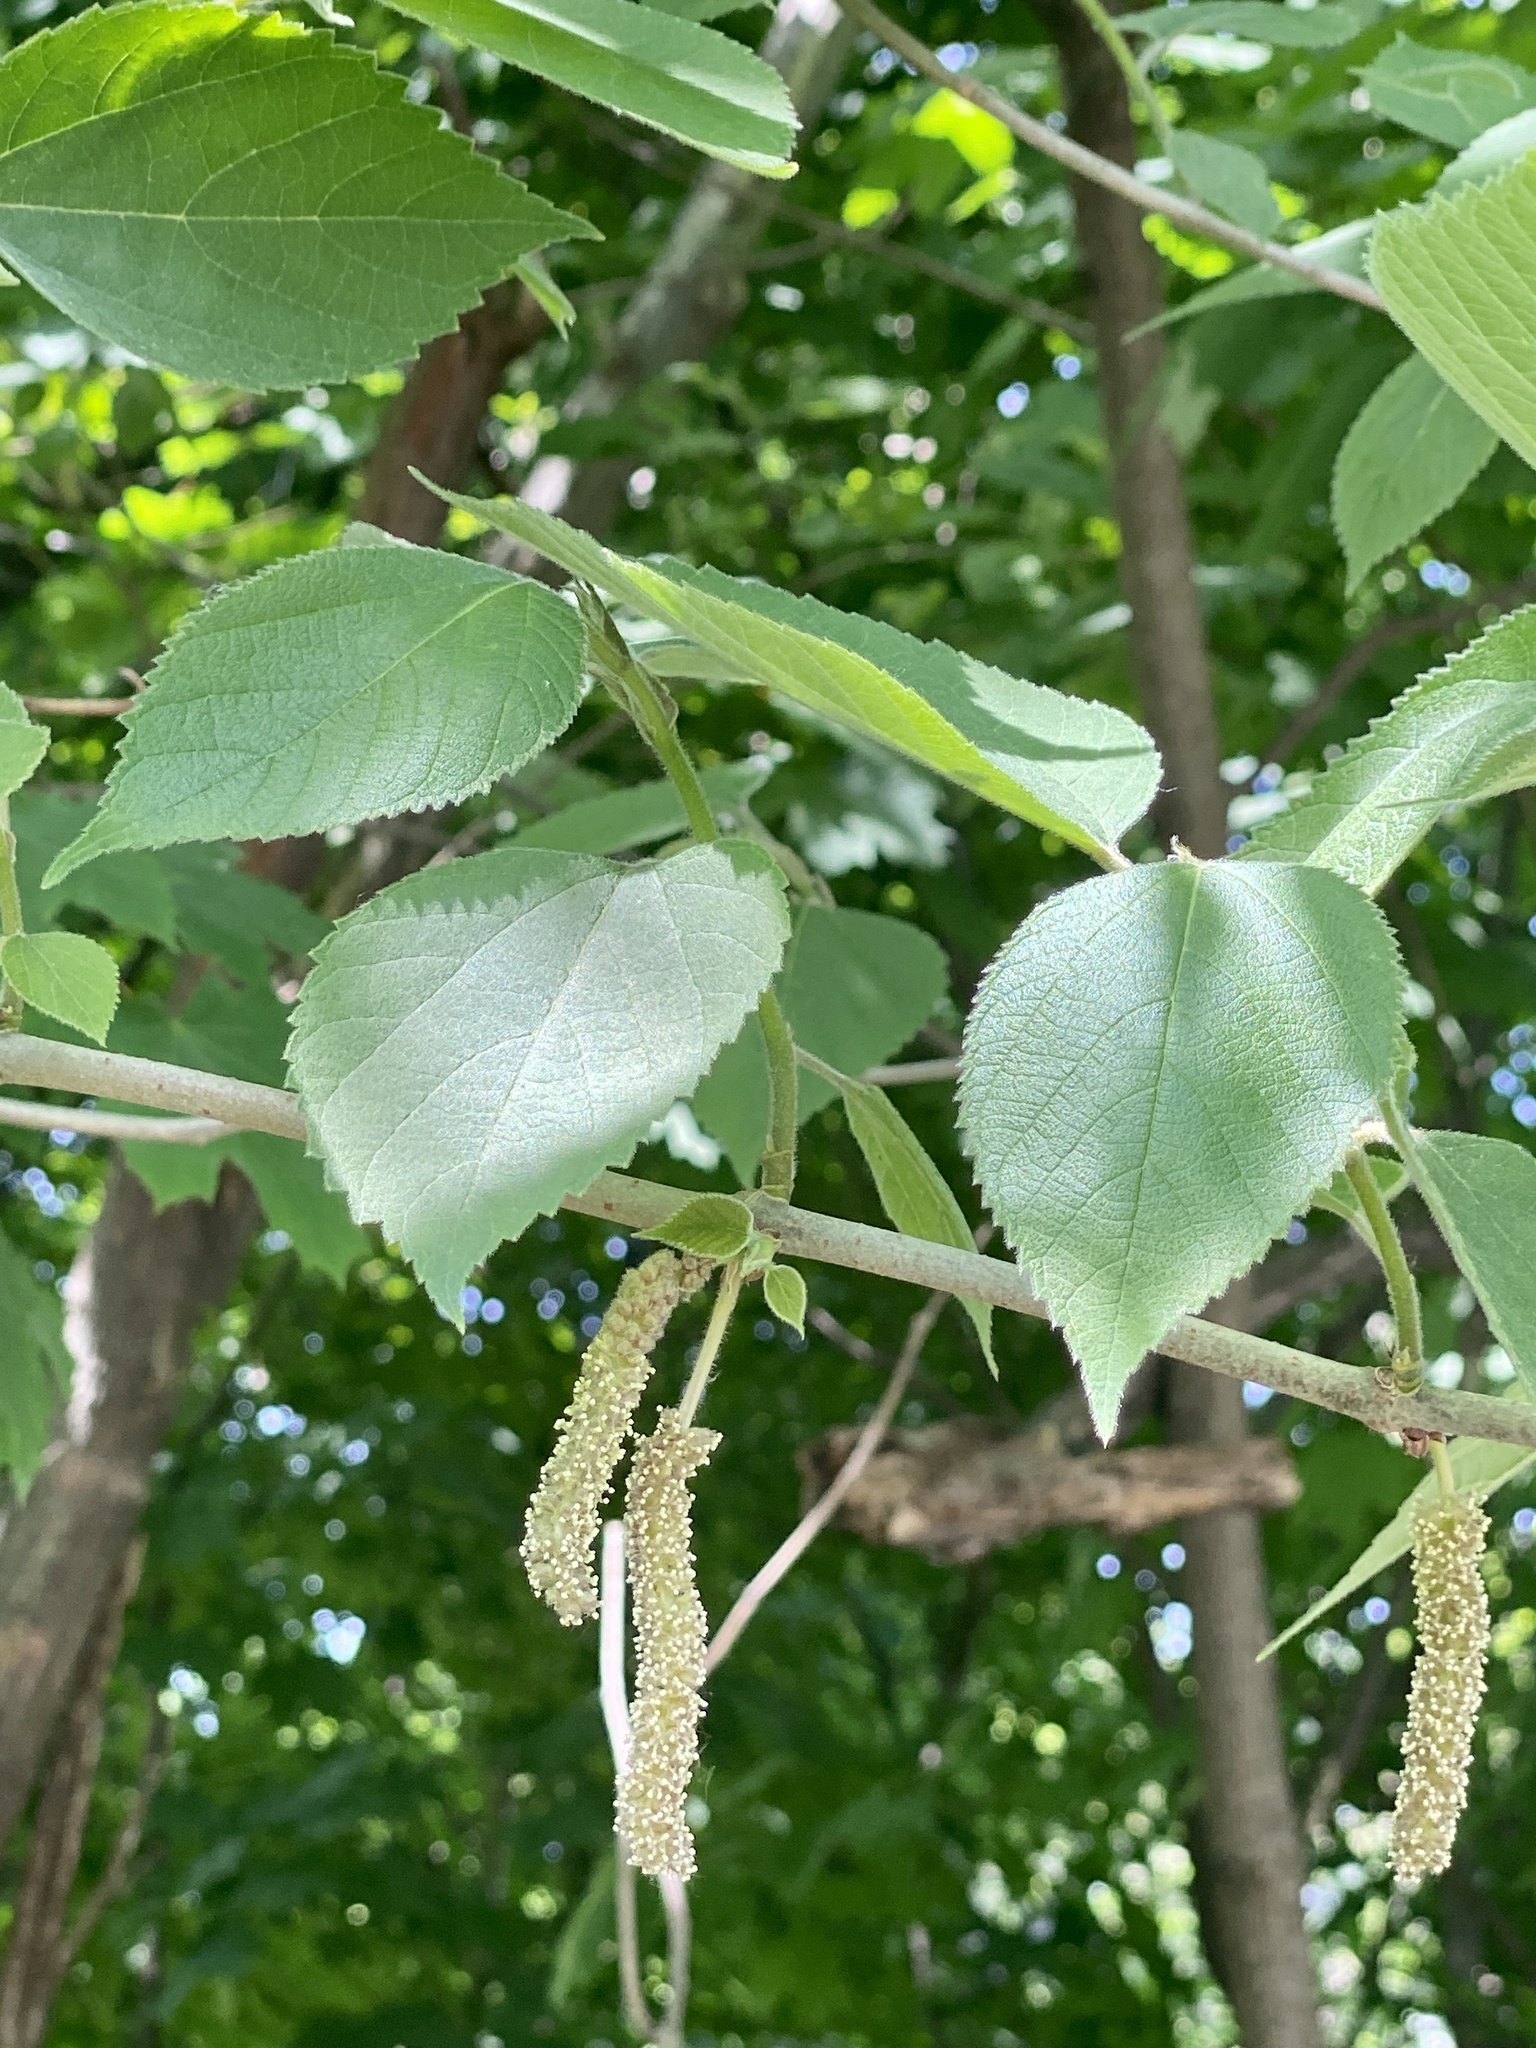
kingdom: Plantae
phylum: Tracheophyta
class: Magnoliopsida
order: Rosales
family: Moraceae
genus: Broussonetia
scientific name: Broussonetia papyrifera
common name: Paper mulberry
